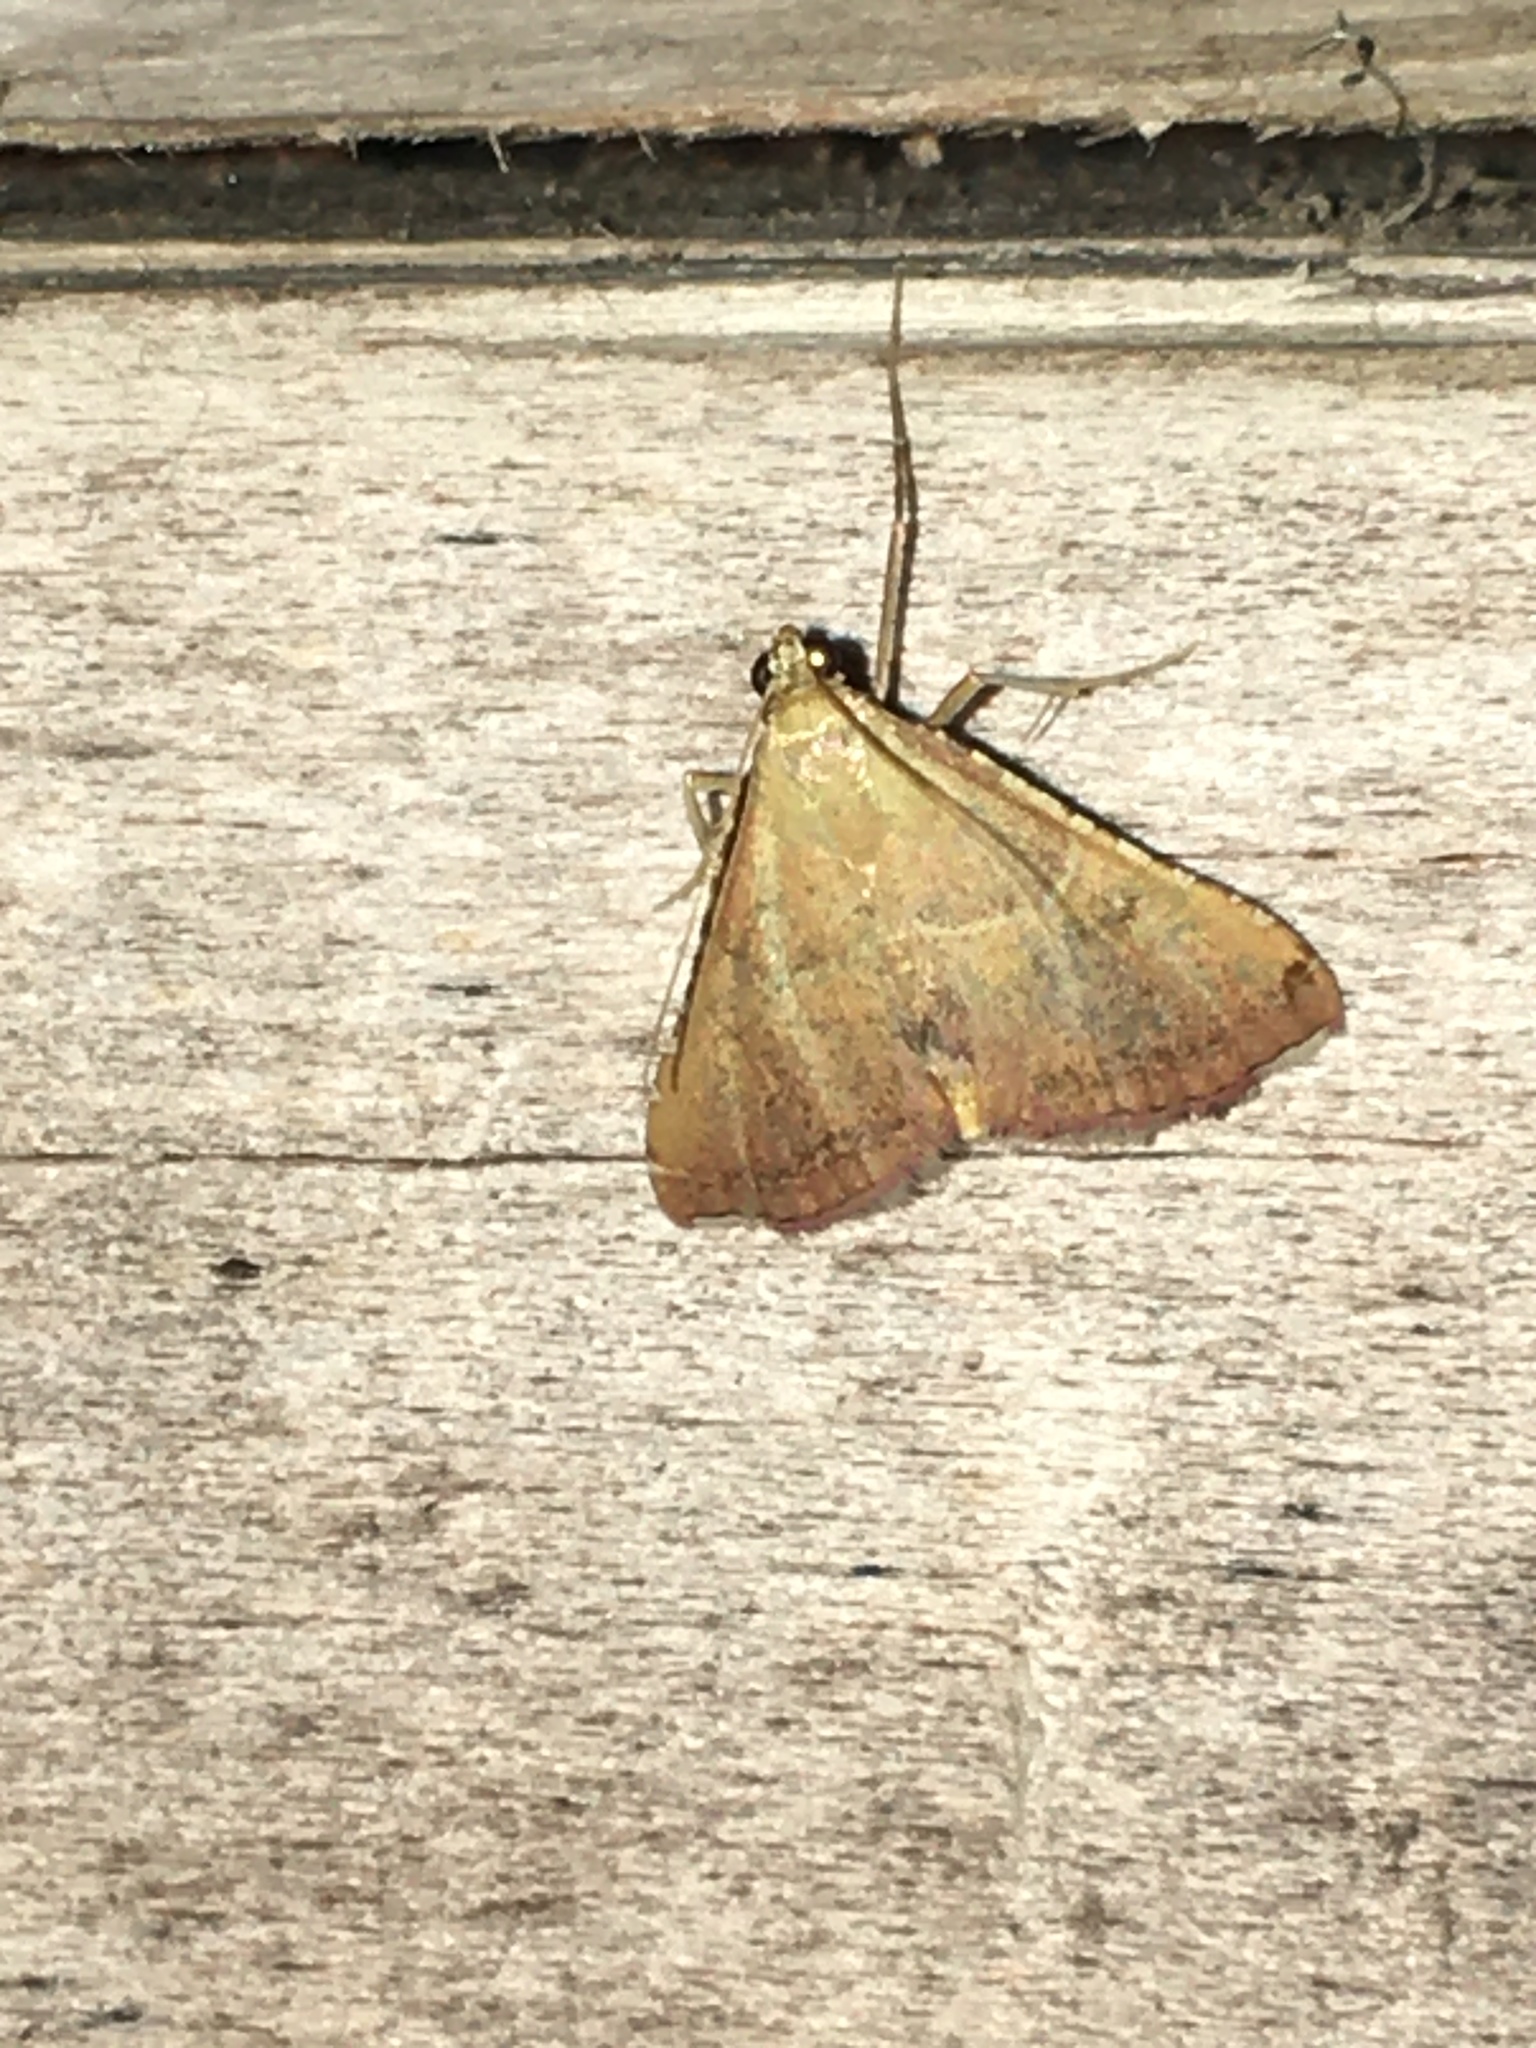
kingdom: Animalia
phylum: Arthropoda
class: Insecta
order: Lepidoptera
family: Pyralidae
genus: Endotricha
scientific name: Endotricha flammealis
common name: Rosy tabby
